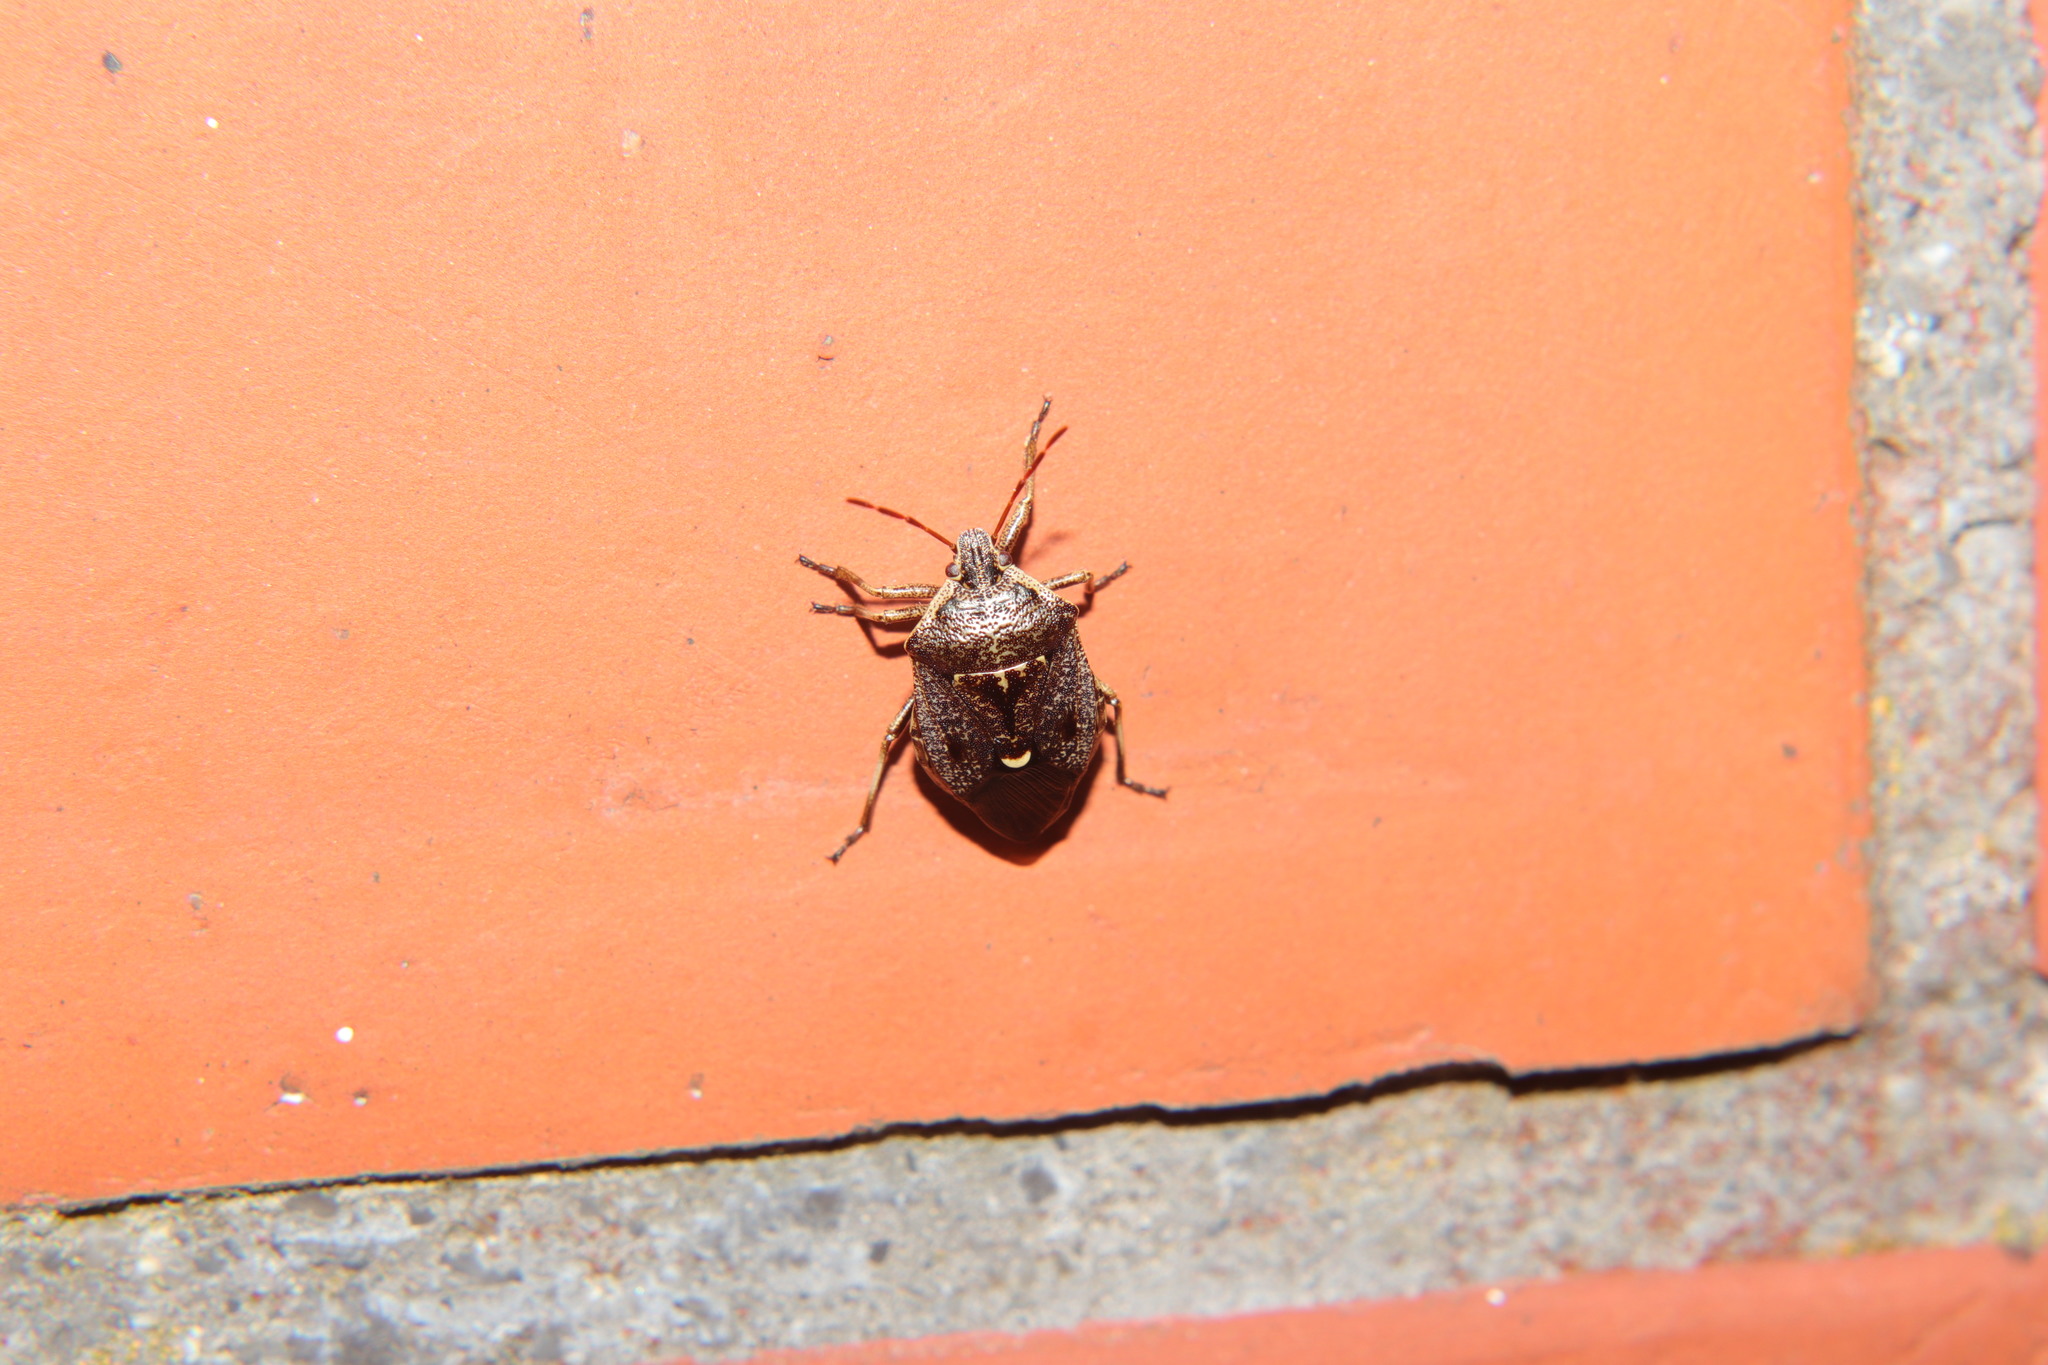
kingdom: Animalia
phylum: Arthropoda
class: Insecta
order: Hemiptera
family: Pentatomidae
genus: Cermatulus
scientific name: Cermatulus nasalis
